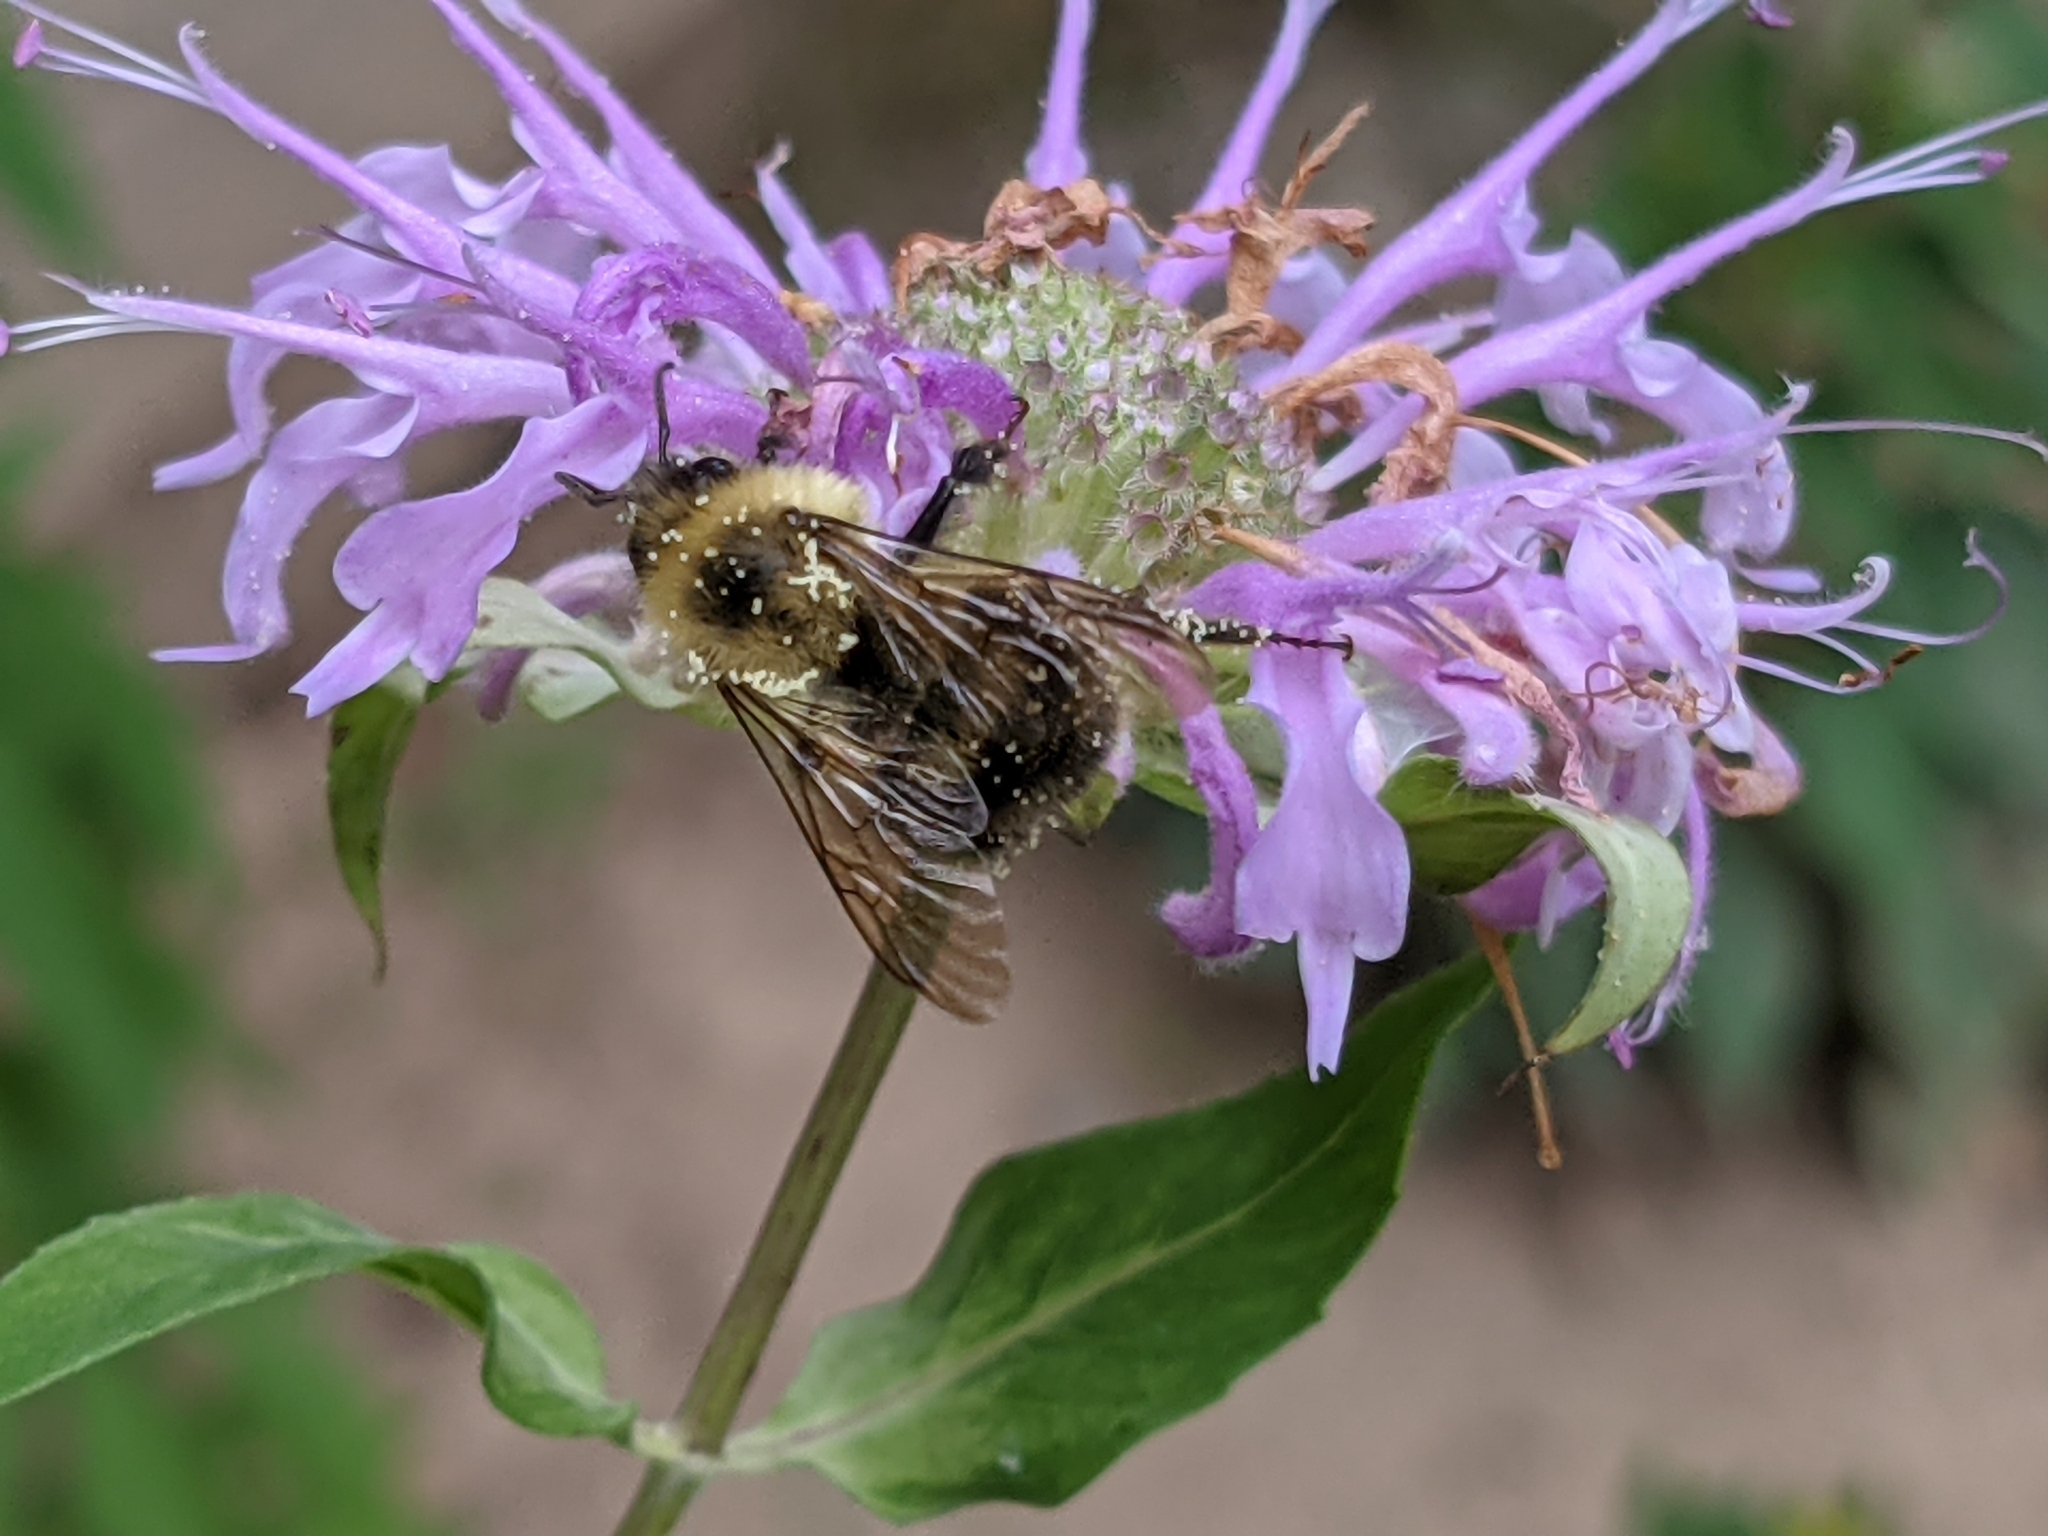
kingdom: Animalia
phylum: Arthropoda
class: Insecta
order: Hymenoptera
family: Apidae
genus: Bombus
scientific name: Bombus bimaculatus
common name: Two-spotted bumble bee
